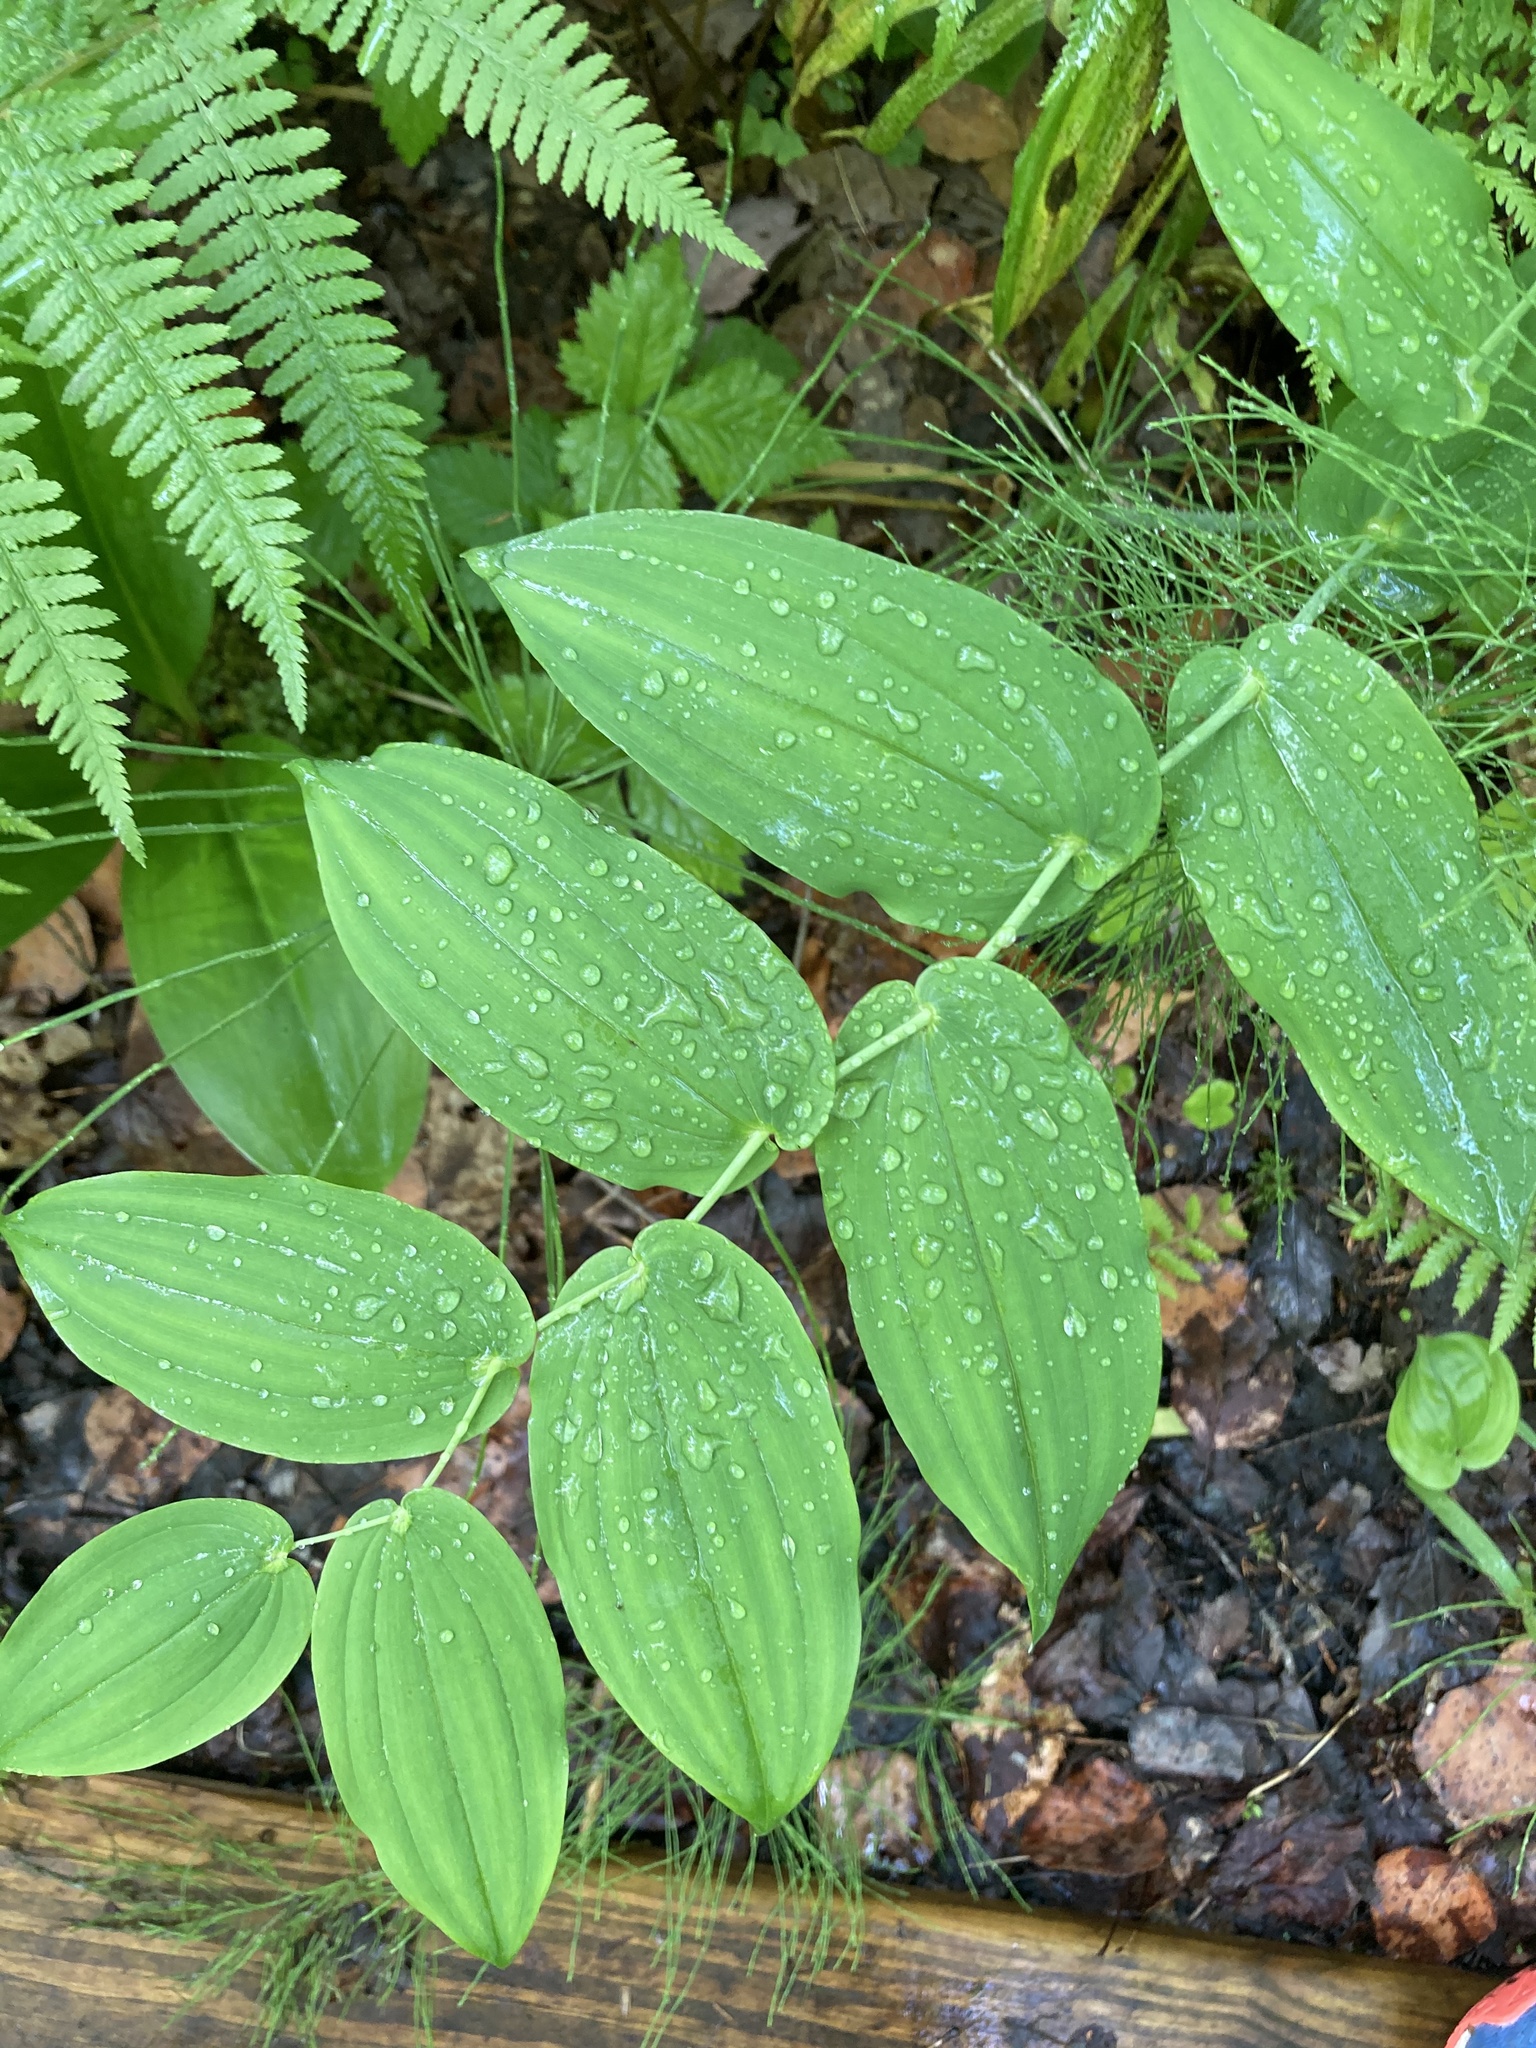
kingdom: Plantae
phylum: Tracheophyta
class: Liliopsida
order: Liliales
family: Liliaceae
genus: Streptopus
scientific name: Streptopus amplexifolius
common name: Clasp twisted stalk
